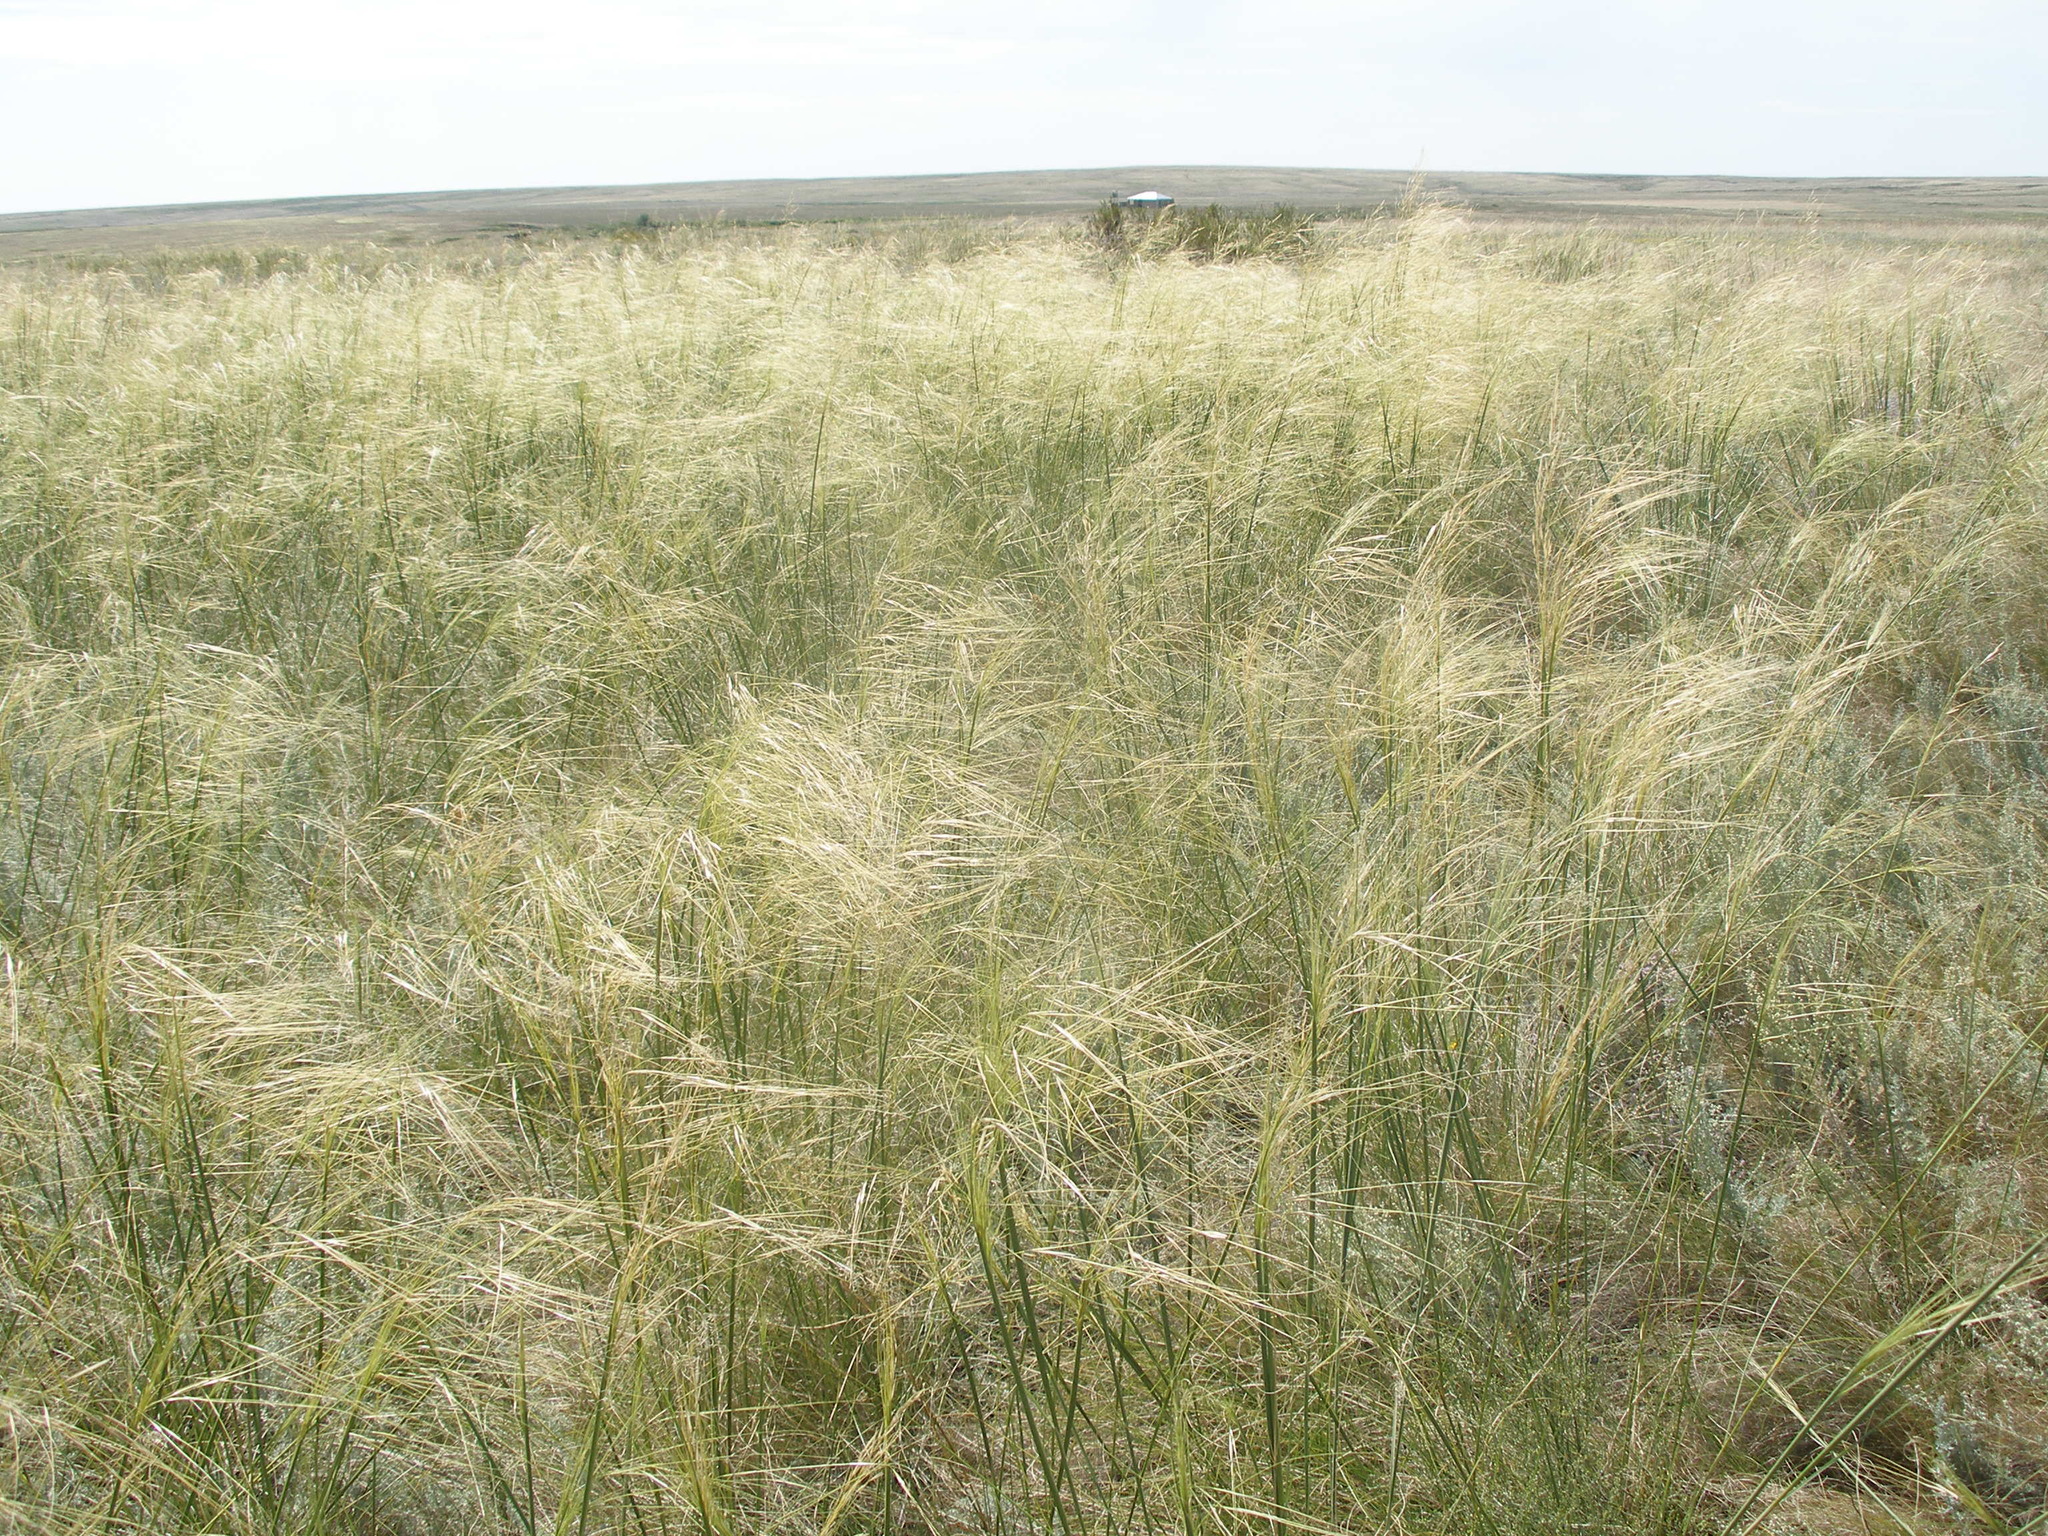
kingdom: Plantae
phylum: Tracheophyta
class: Liliopsida
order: Poales
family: Poaceae
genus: Stipa
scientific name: Stipa capillata
